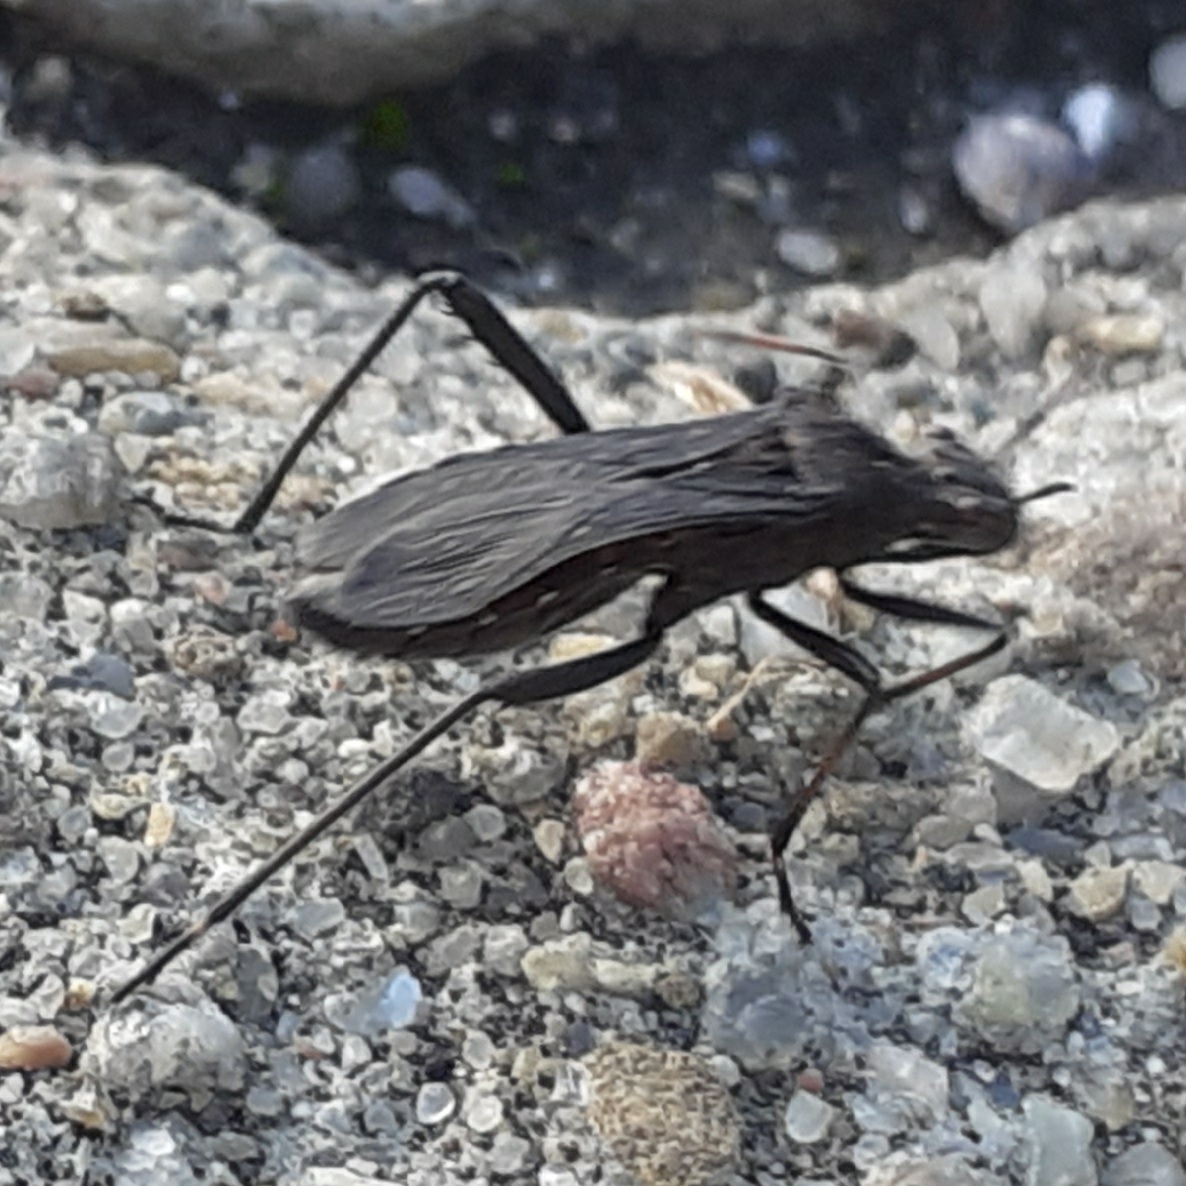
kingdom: Animalia
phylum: Arthropoda
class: Insecta
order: Hemiptera
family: Alydidae
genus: Alydus
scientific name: Alydus calcaratus
